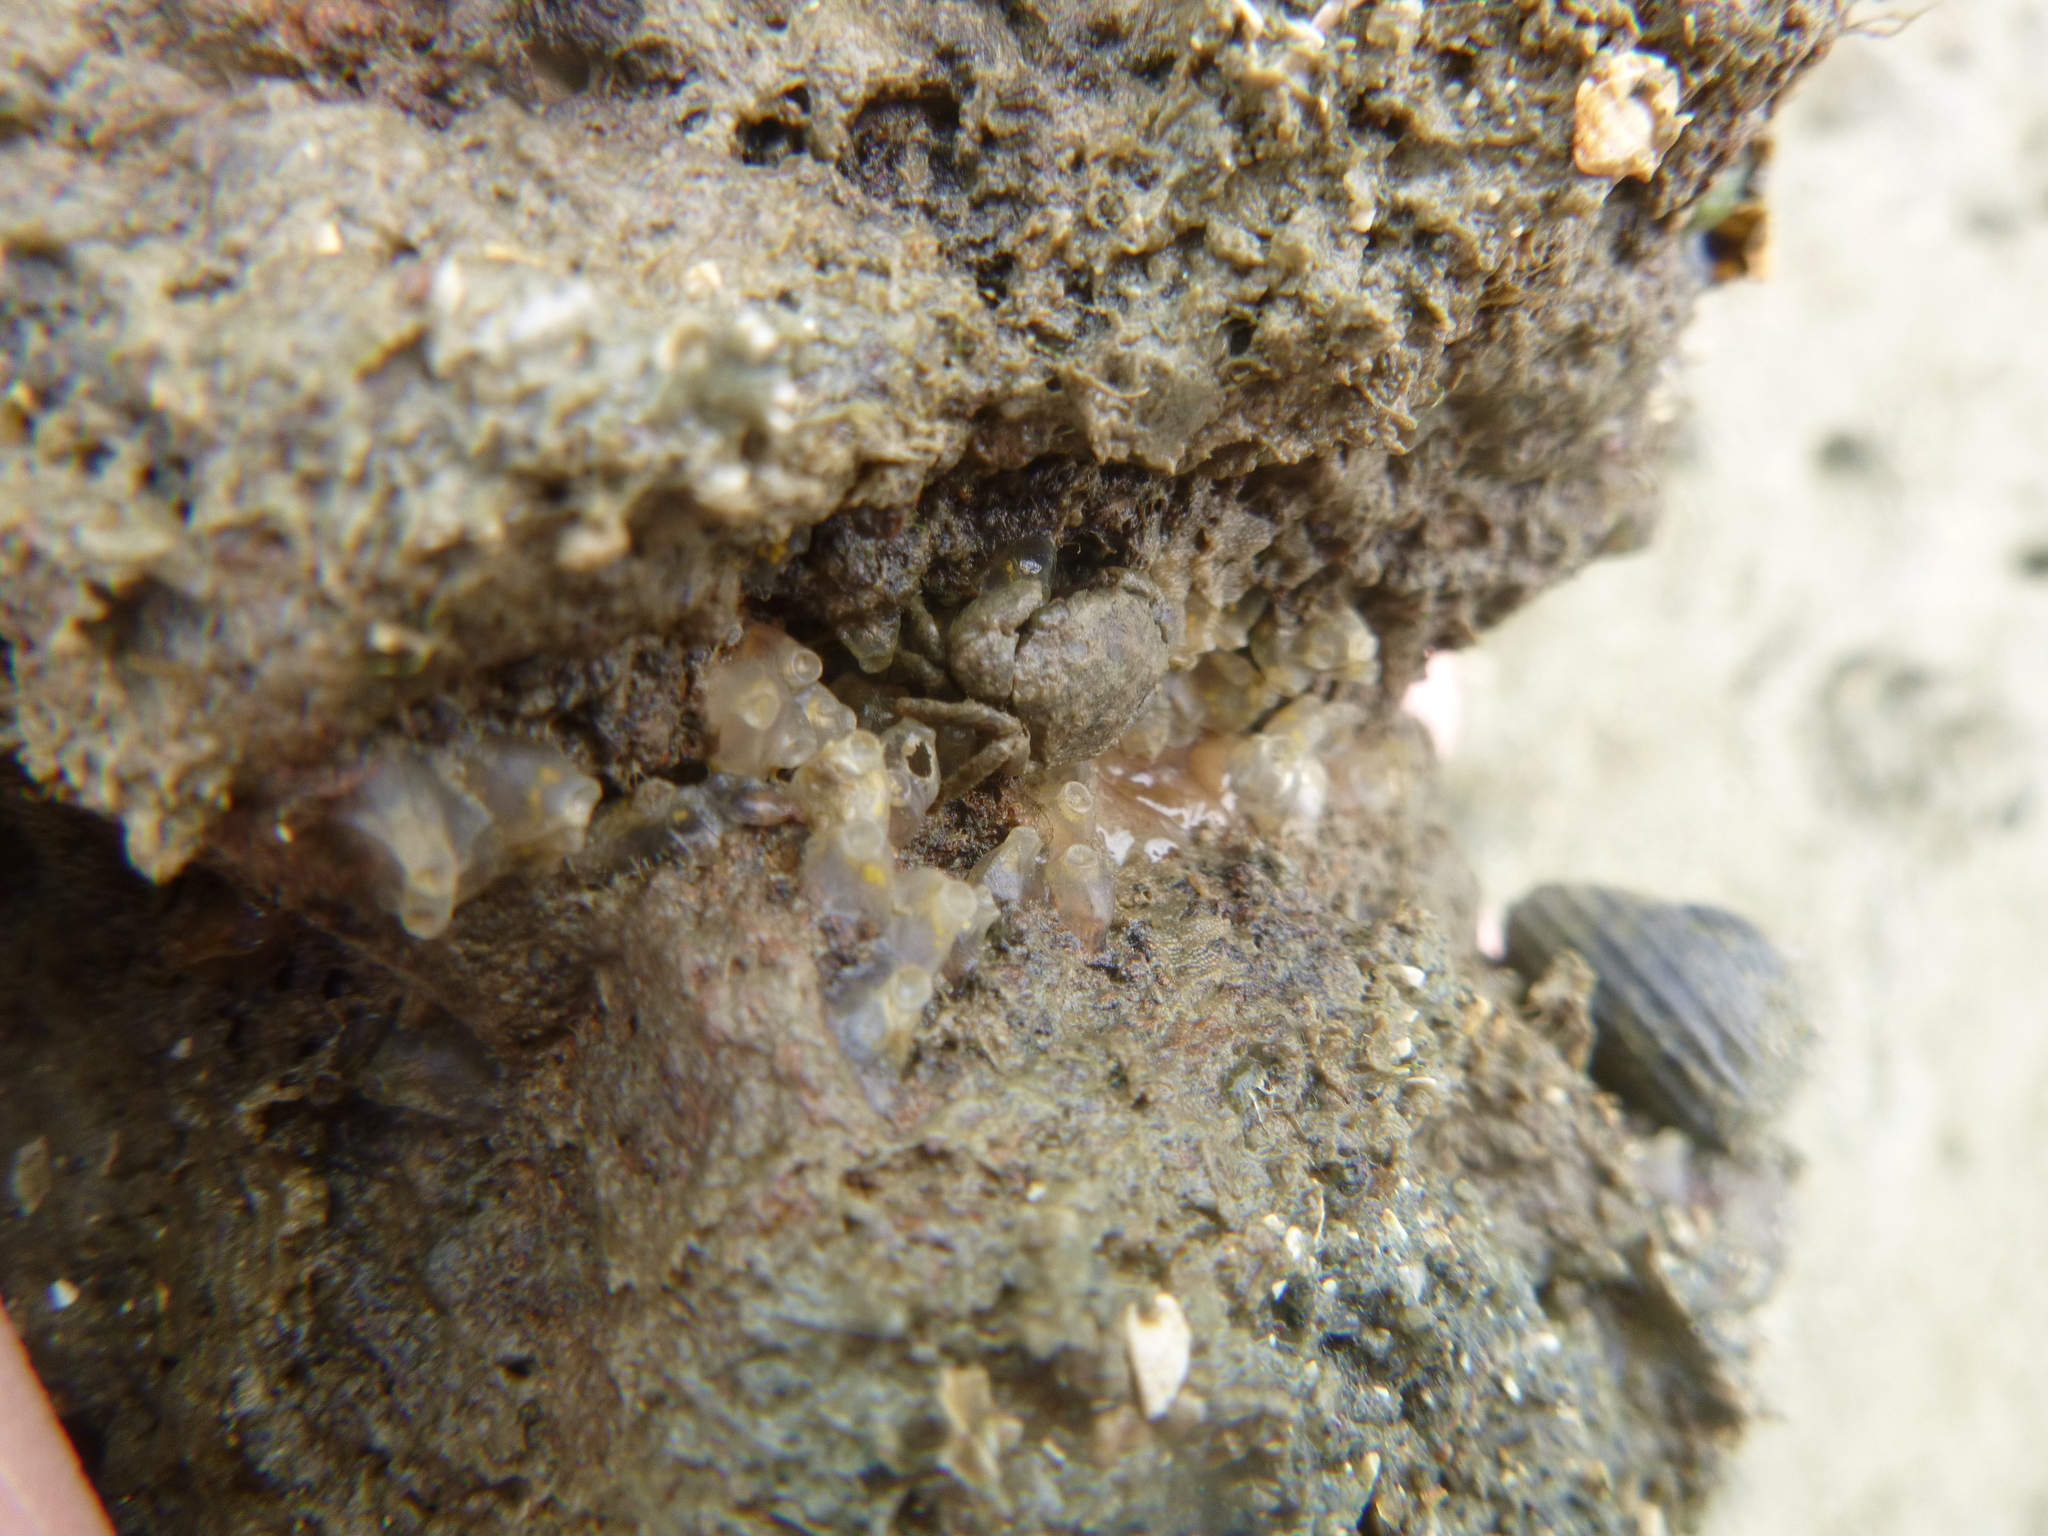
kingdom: Animalia
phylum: Arthropoda
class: Malacostraca
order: Decapoda
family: Pilumnidae
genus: Pilumnopeus
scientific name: Pilumnopeus serratifrons
